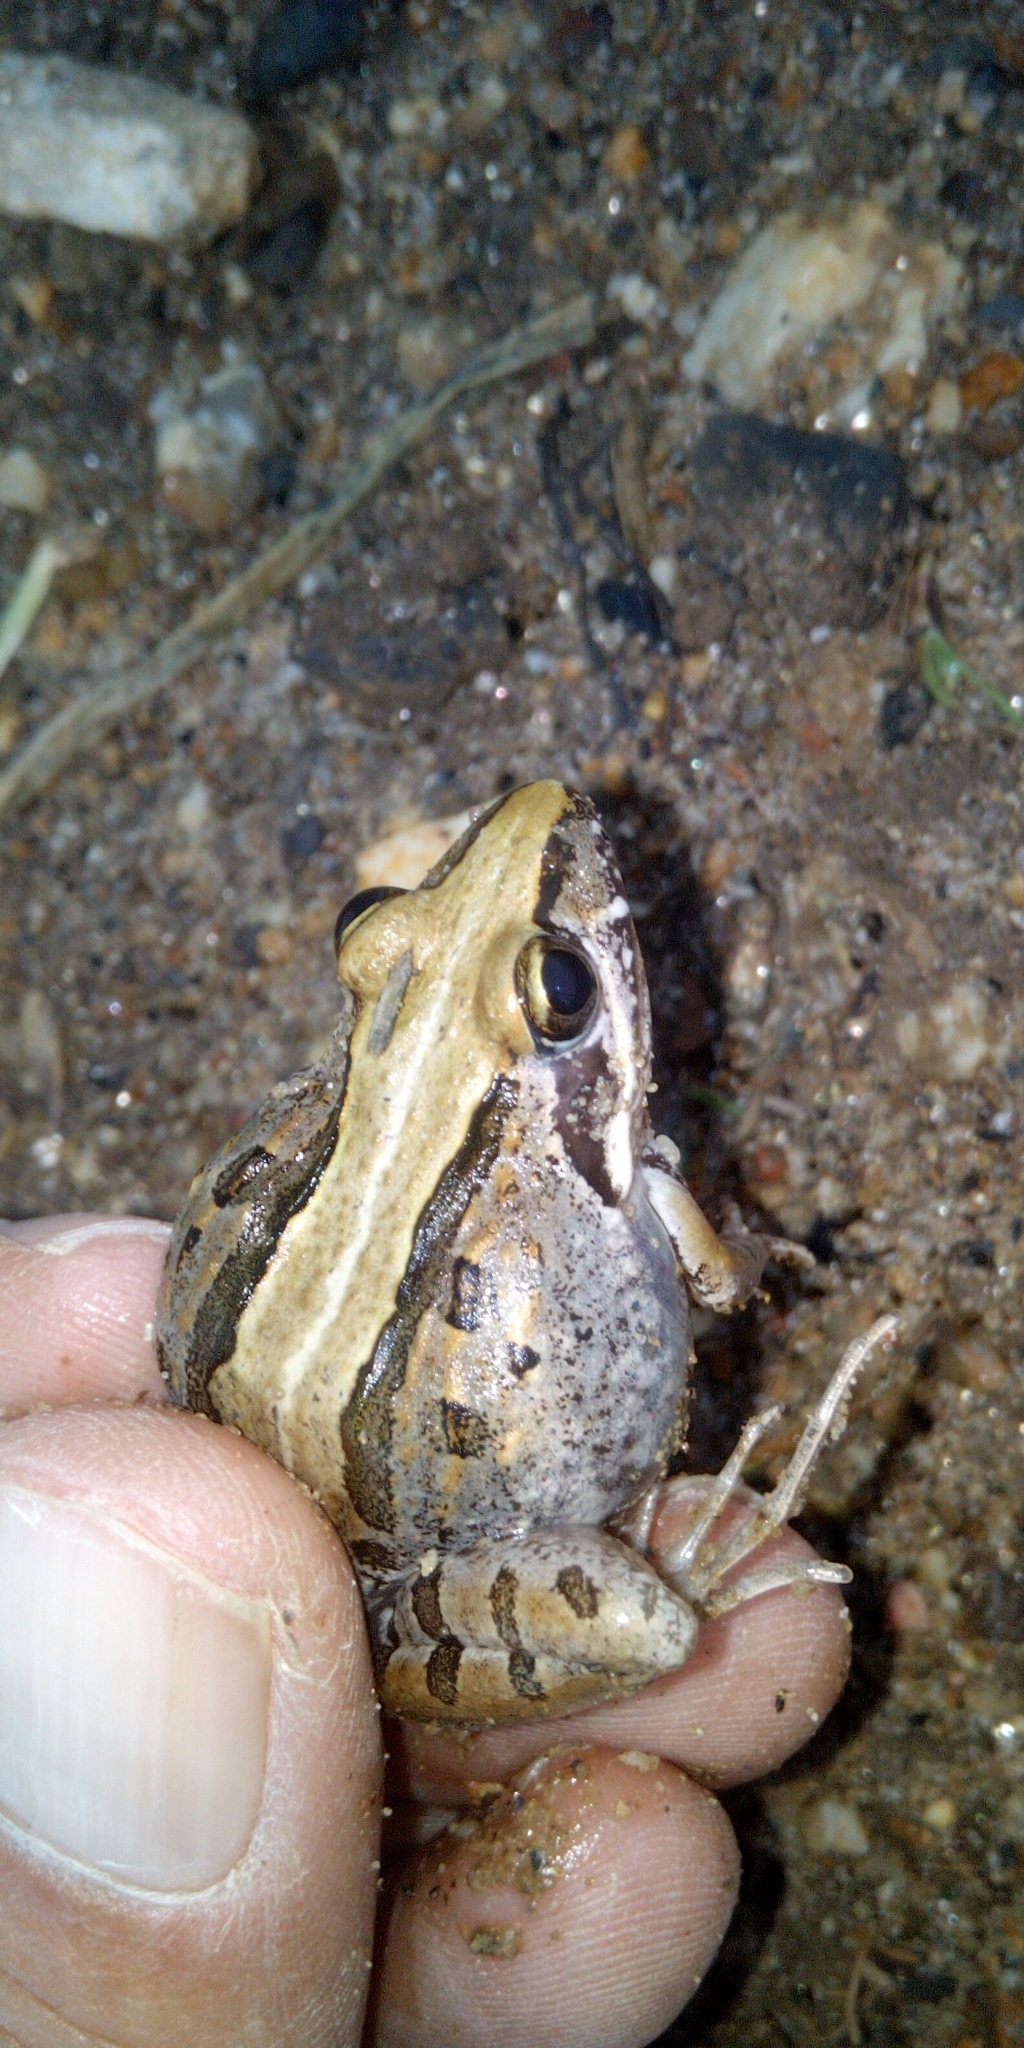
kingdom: Animalia
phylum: Chordata
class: Amphibia
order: Anura
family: Pyxicephalidae
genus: Strongylopus
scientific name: Strongylopus grayii
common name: Gray's stream frog
